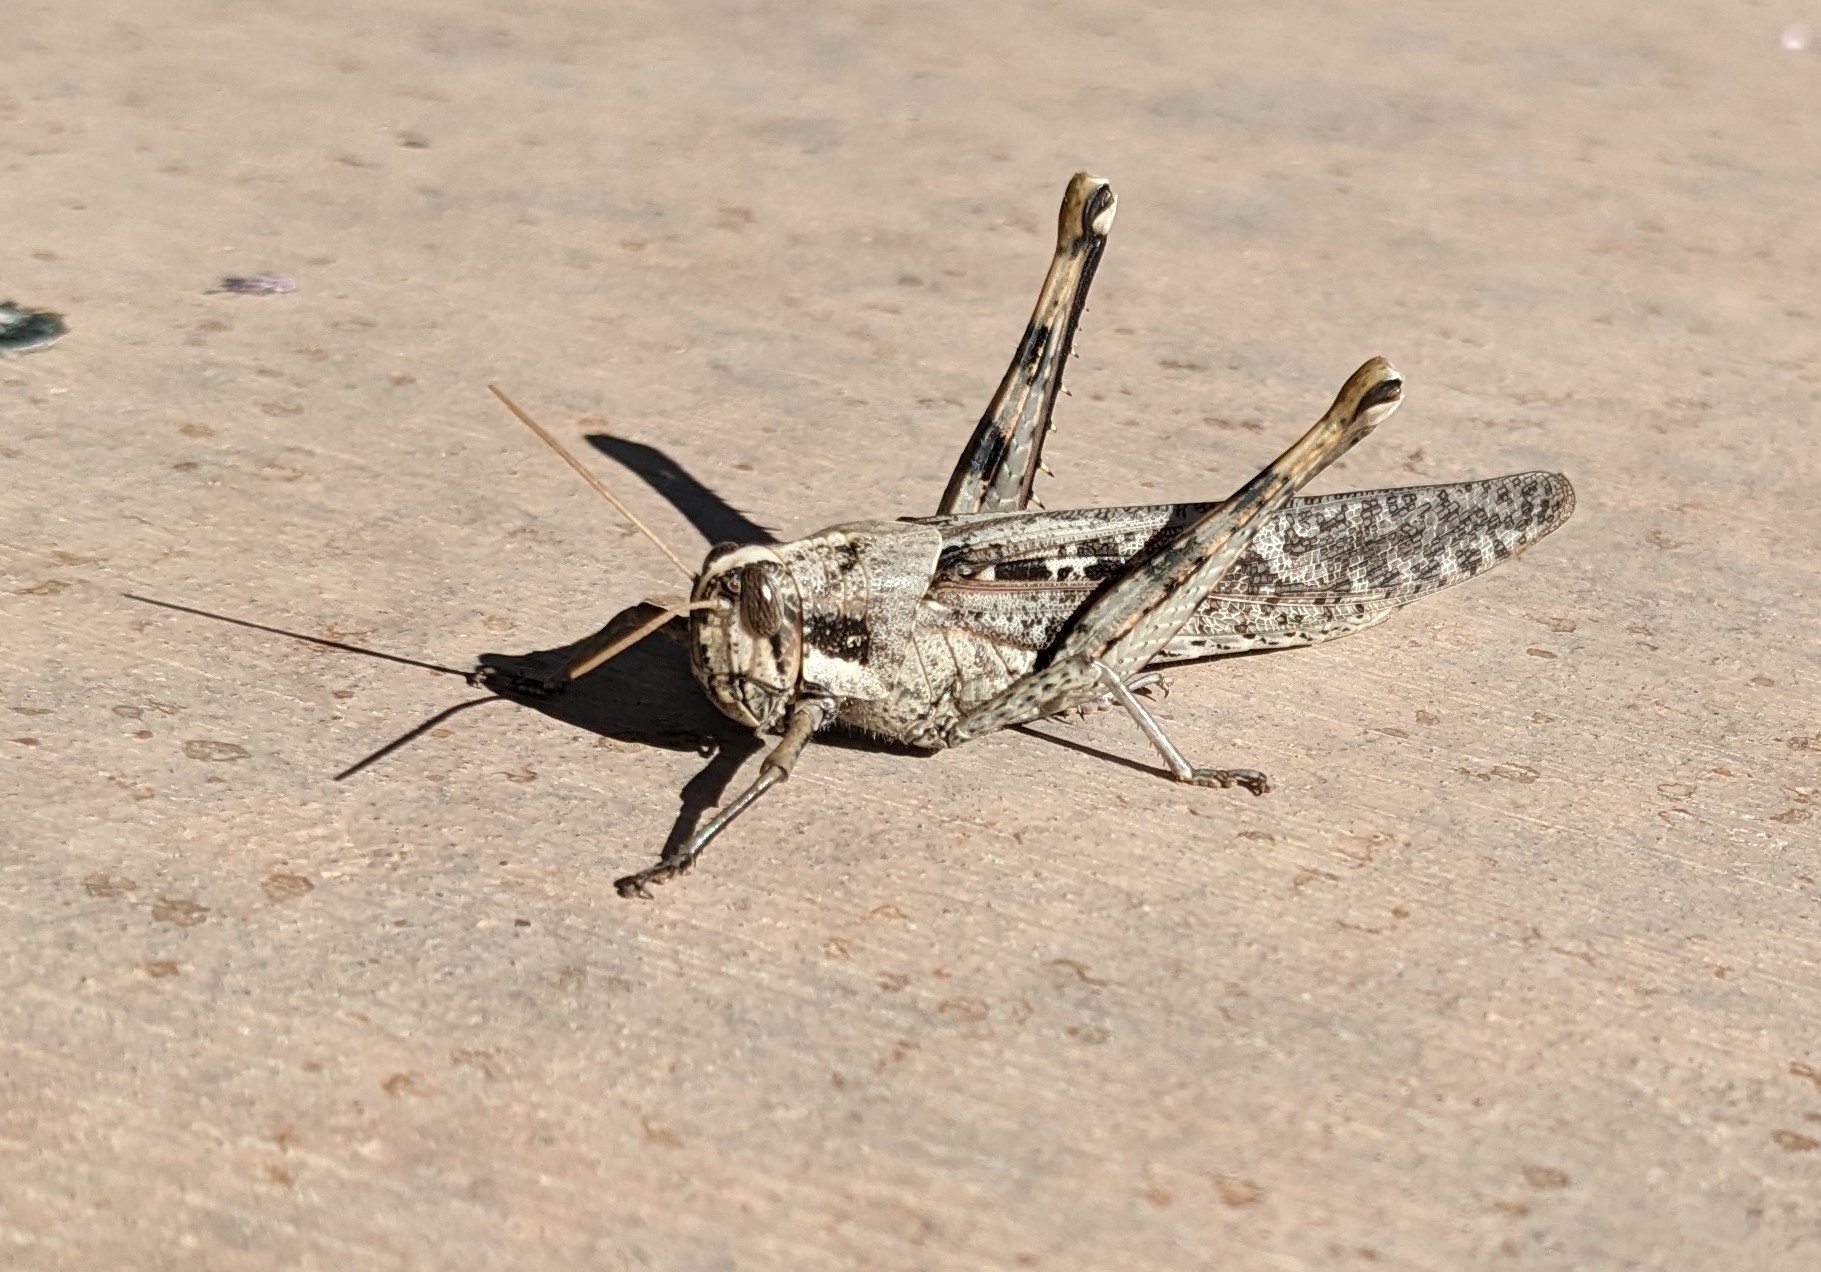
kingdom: Animalia
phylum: Arthropoda
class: Insecta
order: Orthoptera
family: Acrididae
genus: Schistocerca
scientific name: Schistocerca nitens
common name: Vagrant grasshopper
